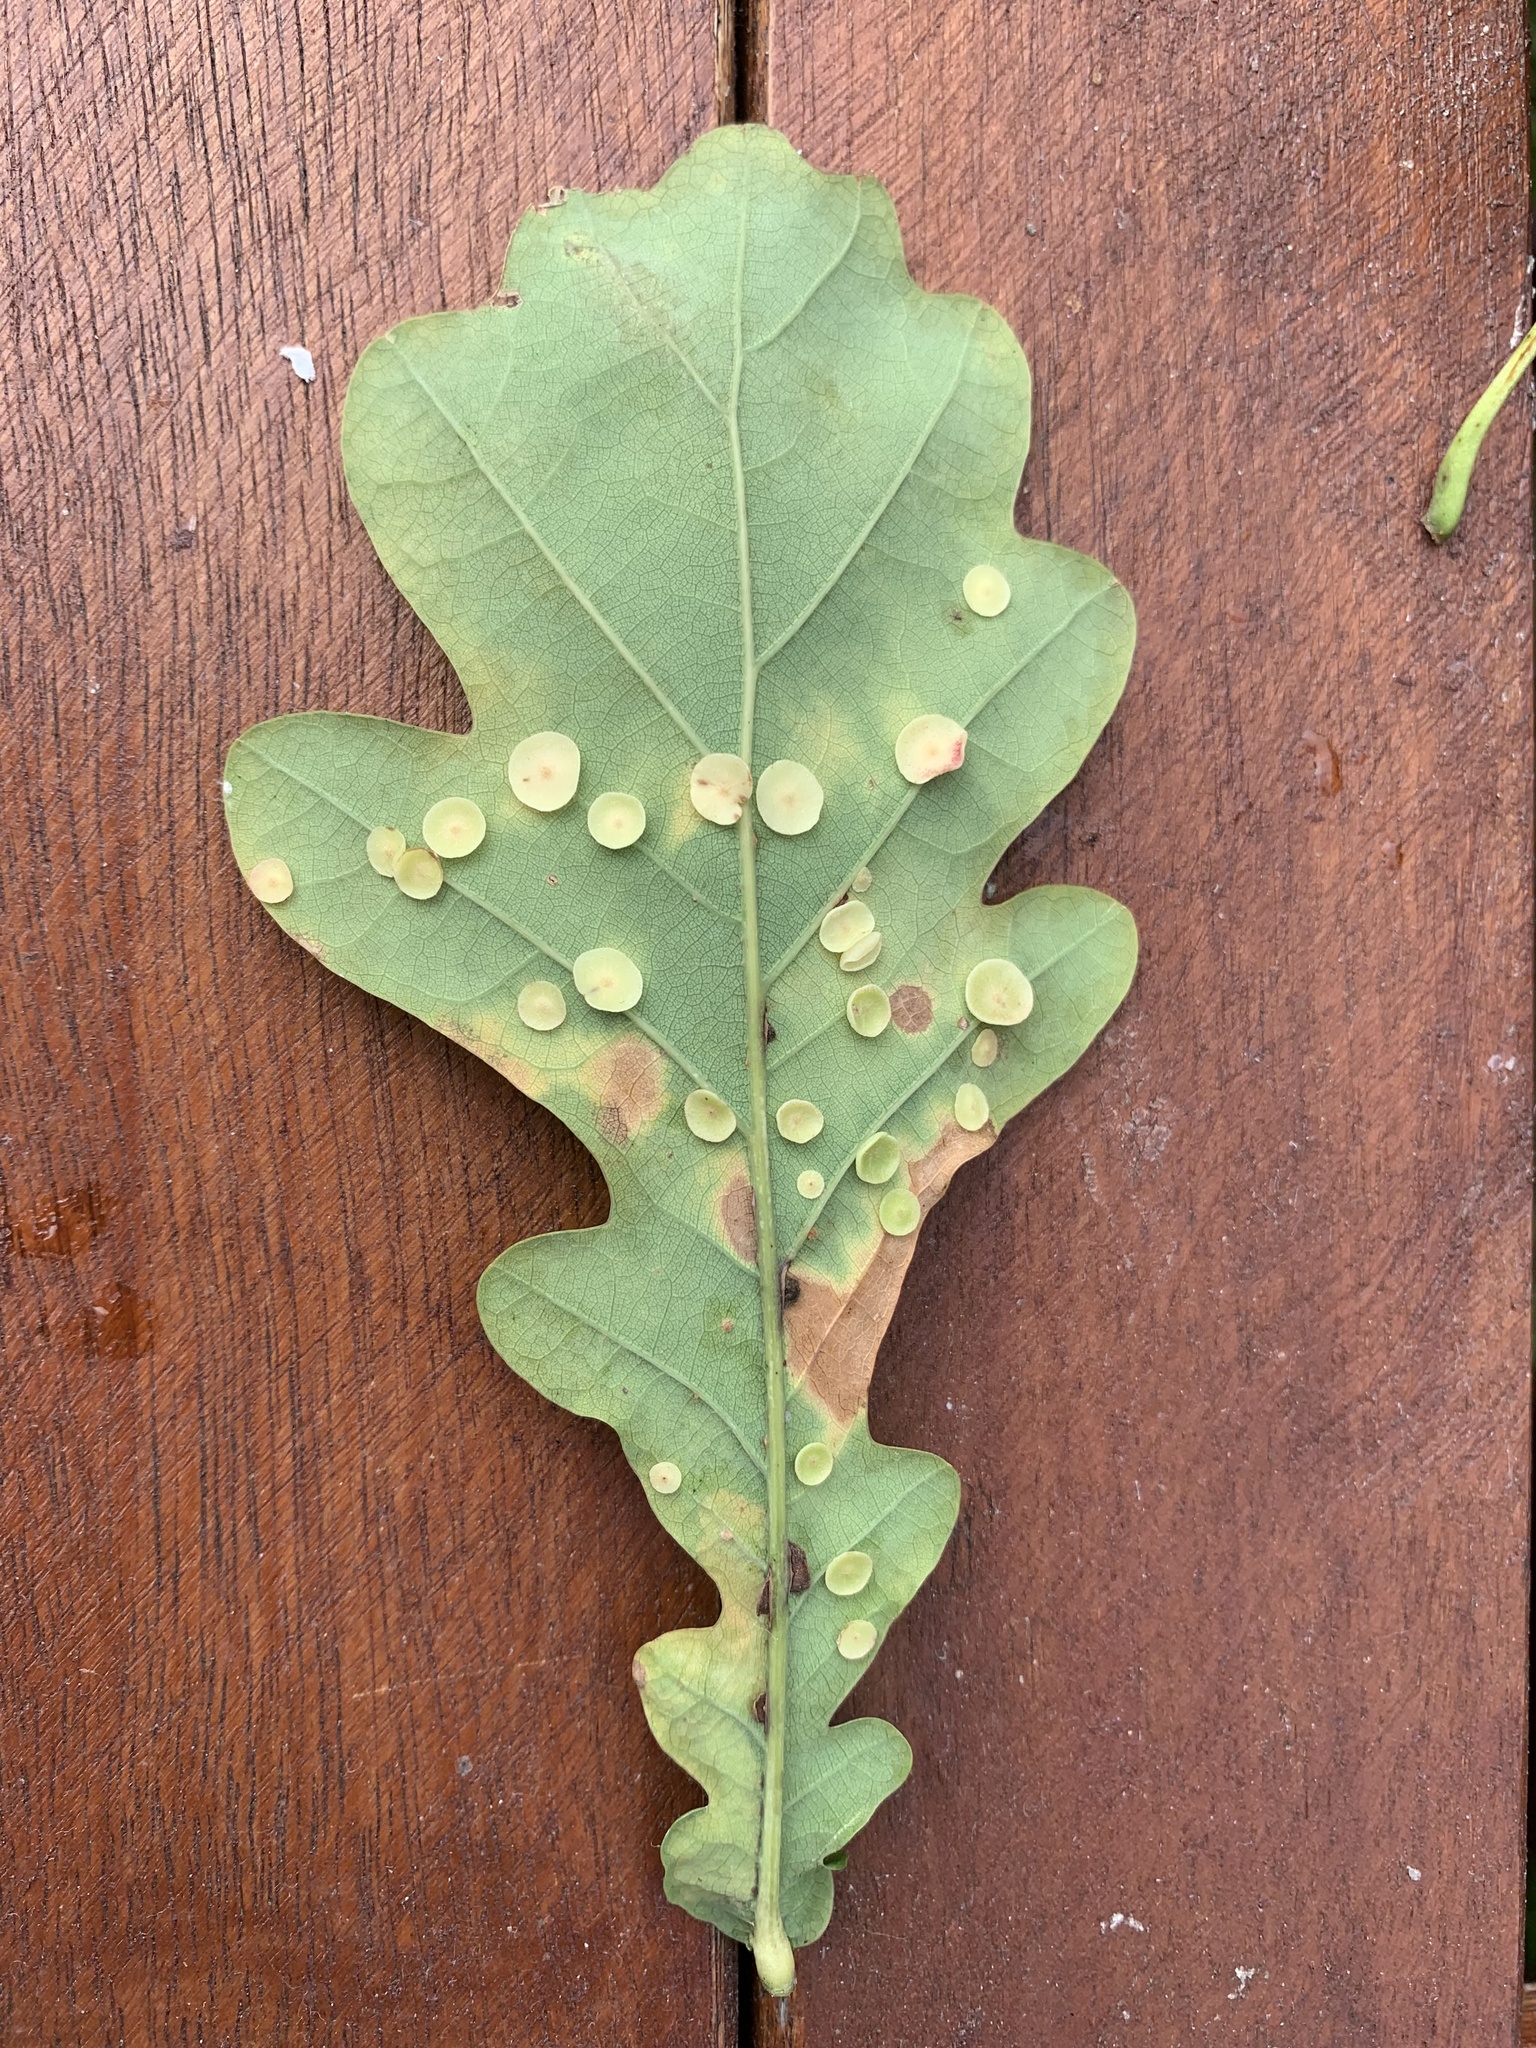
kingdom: Animalia
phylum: Arthropoda
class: Insecta
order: Hymenoptera
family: Cynipidae
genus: Neuroterus
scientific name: Neuroterus albipes
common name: Smooth spangle gall
